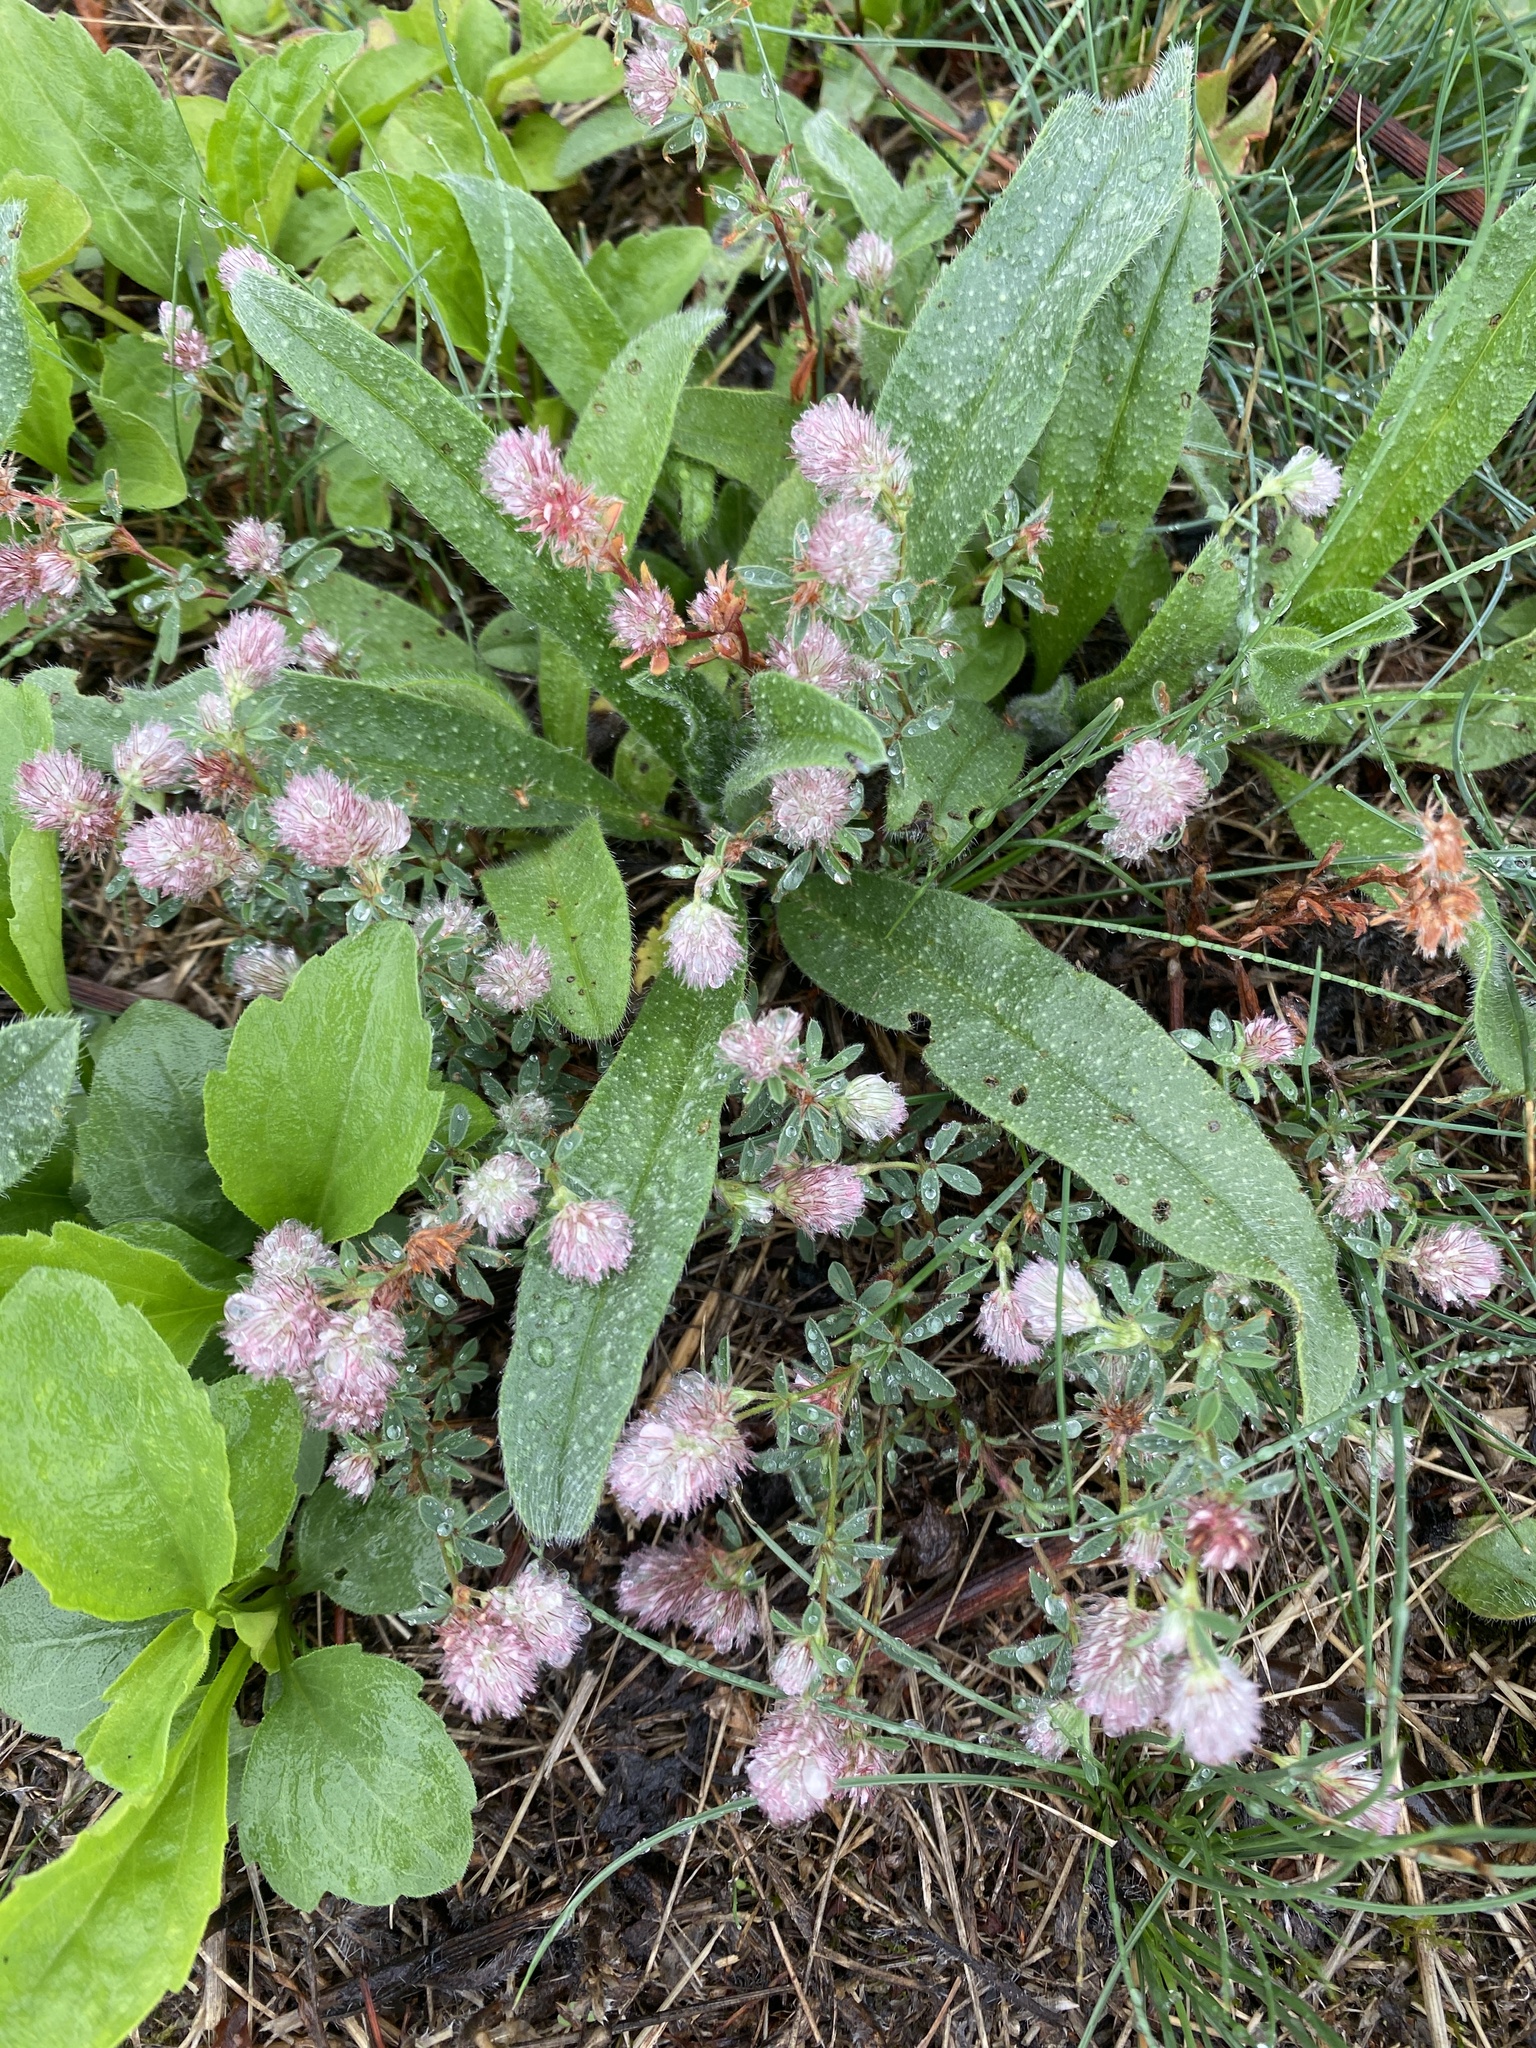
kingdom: Plantae
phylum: Tracheophyta
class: Magnoliopsida
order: Fabales
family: Fabaceae
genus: Trifolium
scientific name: Trifolium arvense
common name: Hare's-foot clover
